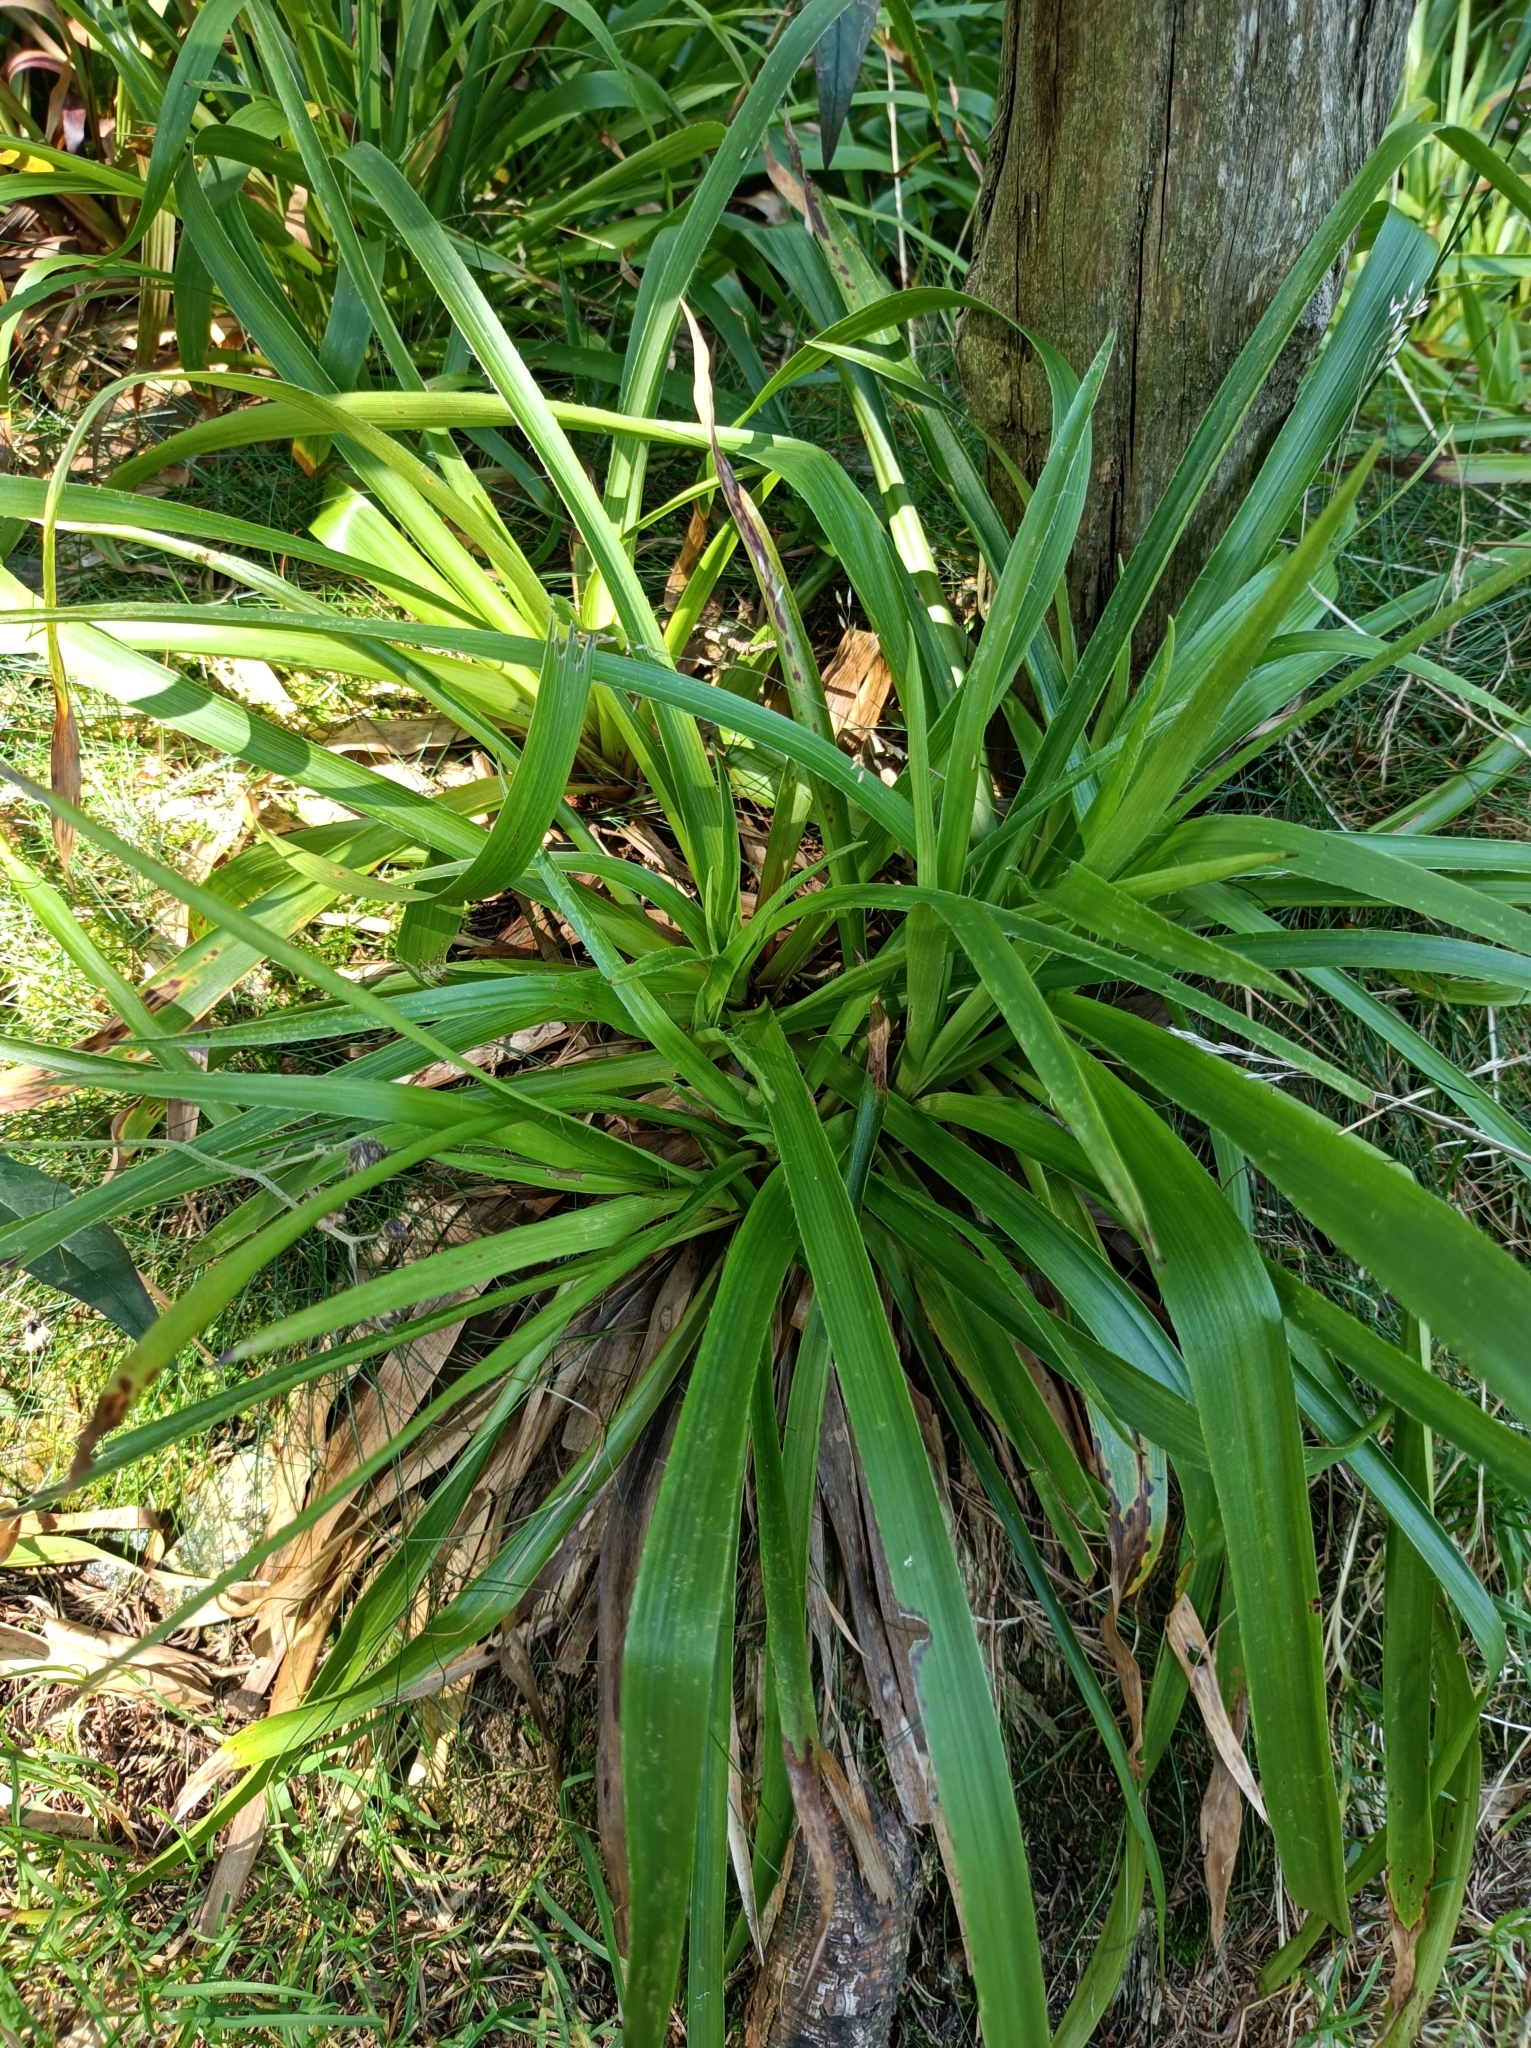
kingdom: Plantae
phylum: Tracheophyta
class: Liliopsida
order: Poales
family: Juncaceae
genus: Luzula
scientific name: Luzula sylvatica
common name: Great wood-rush
